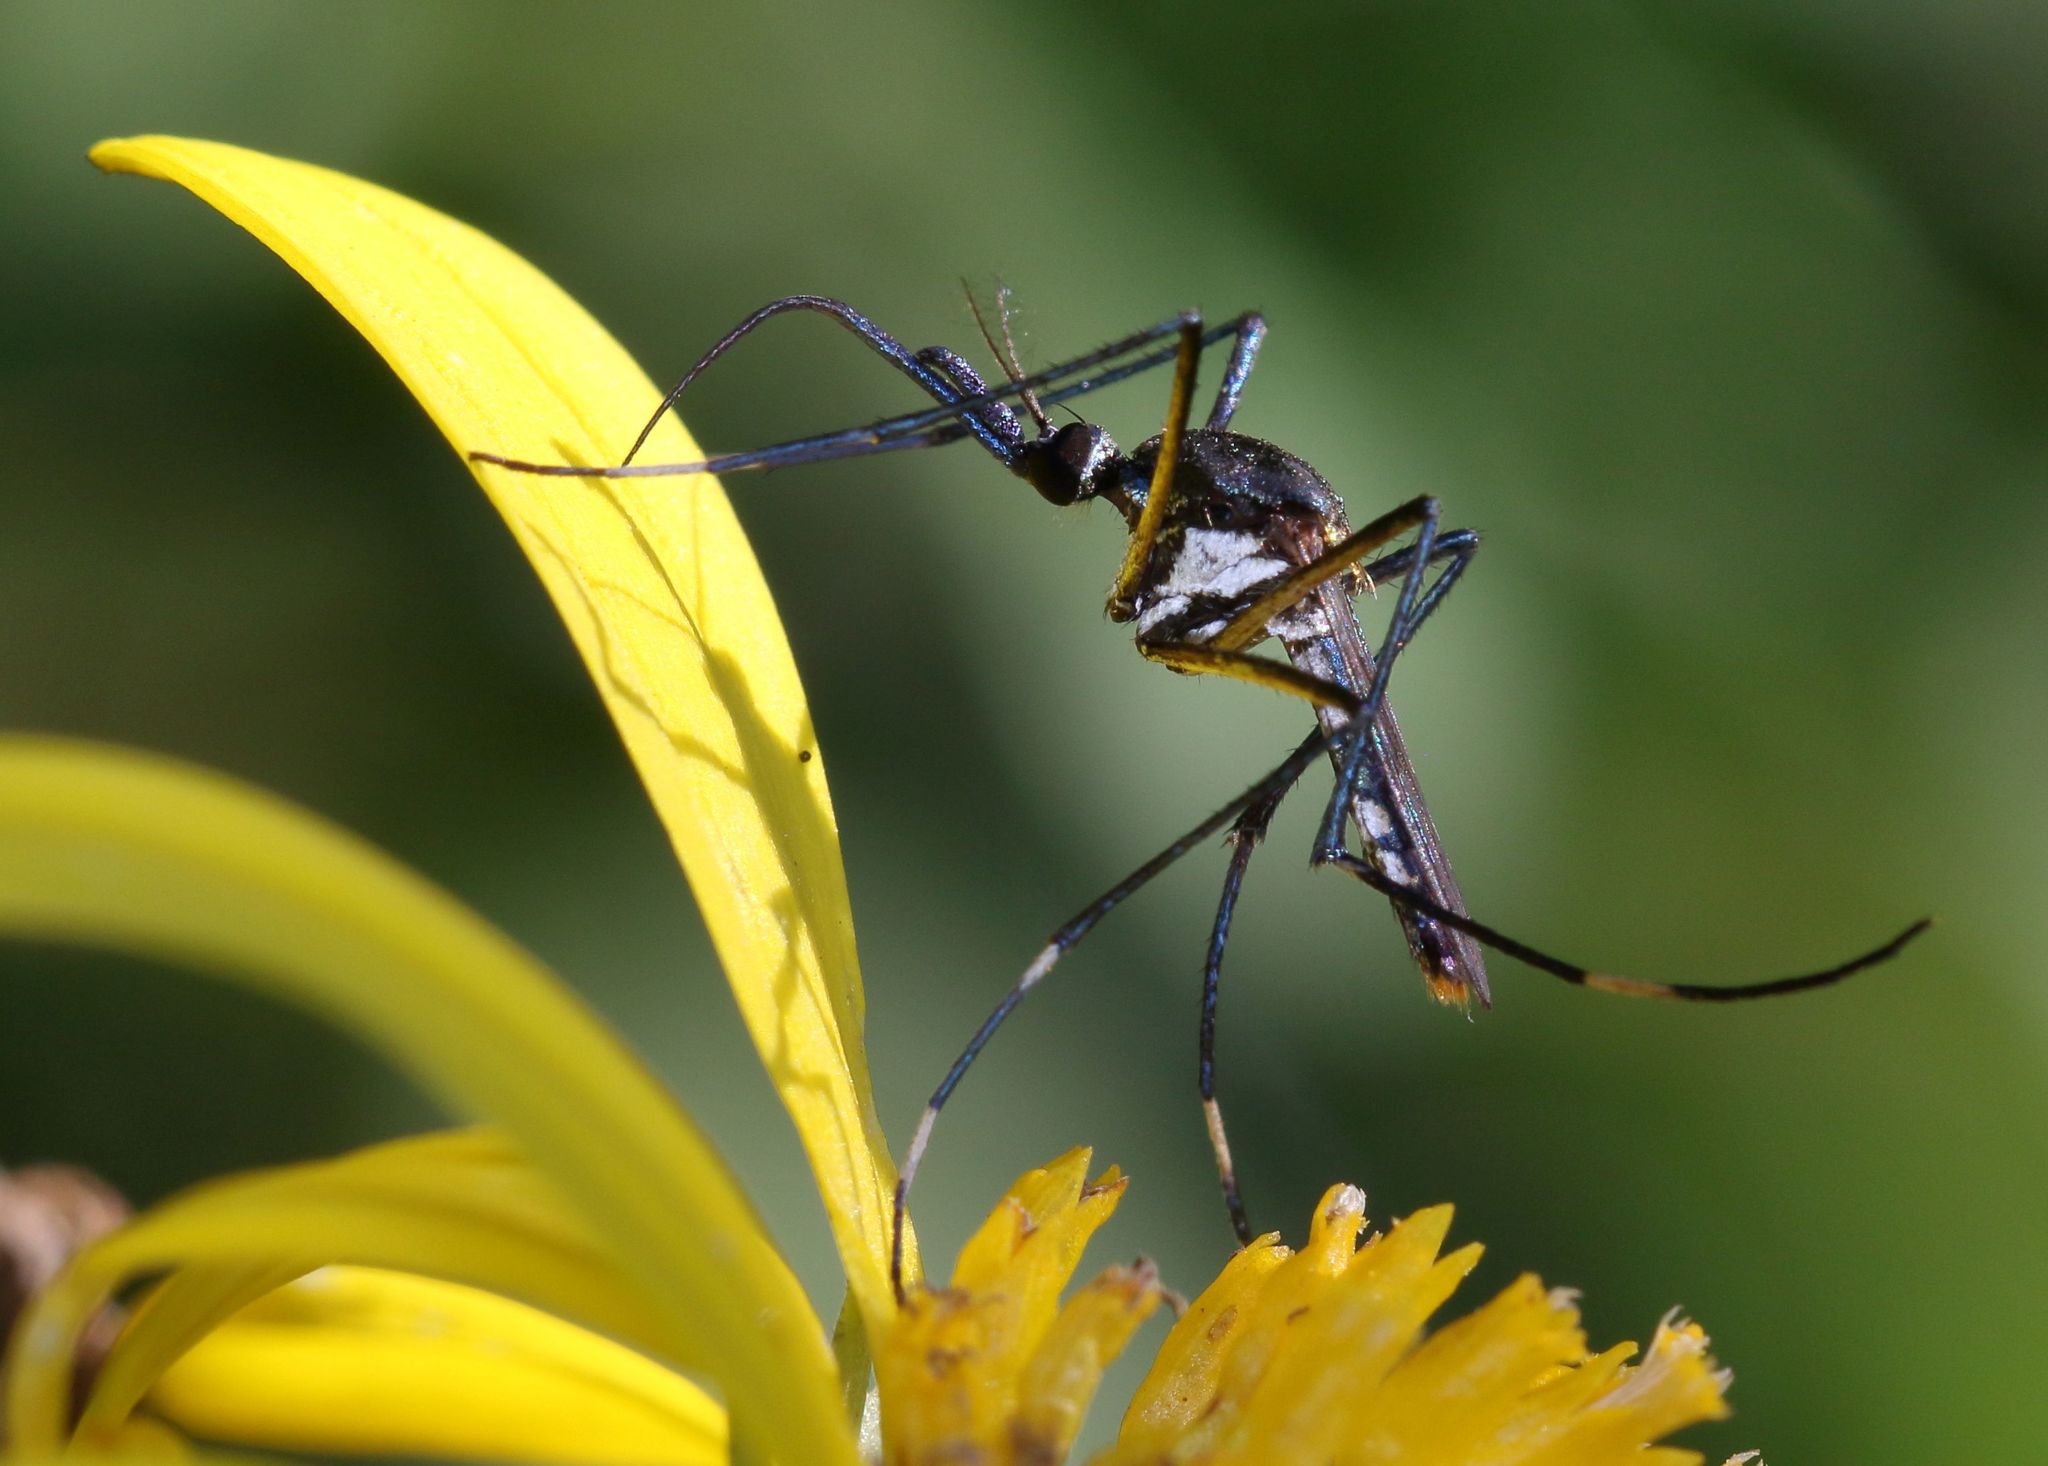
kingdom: Animalia
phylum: Arthropoda
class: Insecta
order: Diptera
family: Culicidae
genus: Toxorhynchites
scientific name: Toxorhynchites brevipalpis
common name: Mosquito
